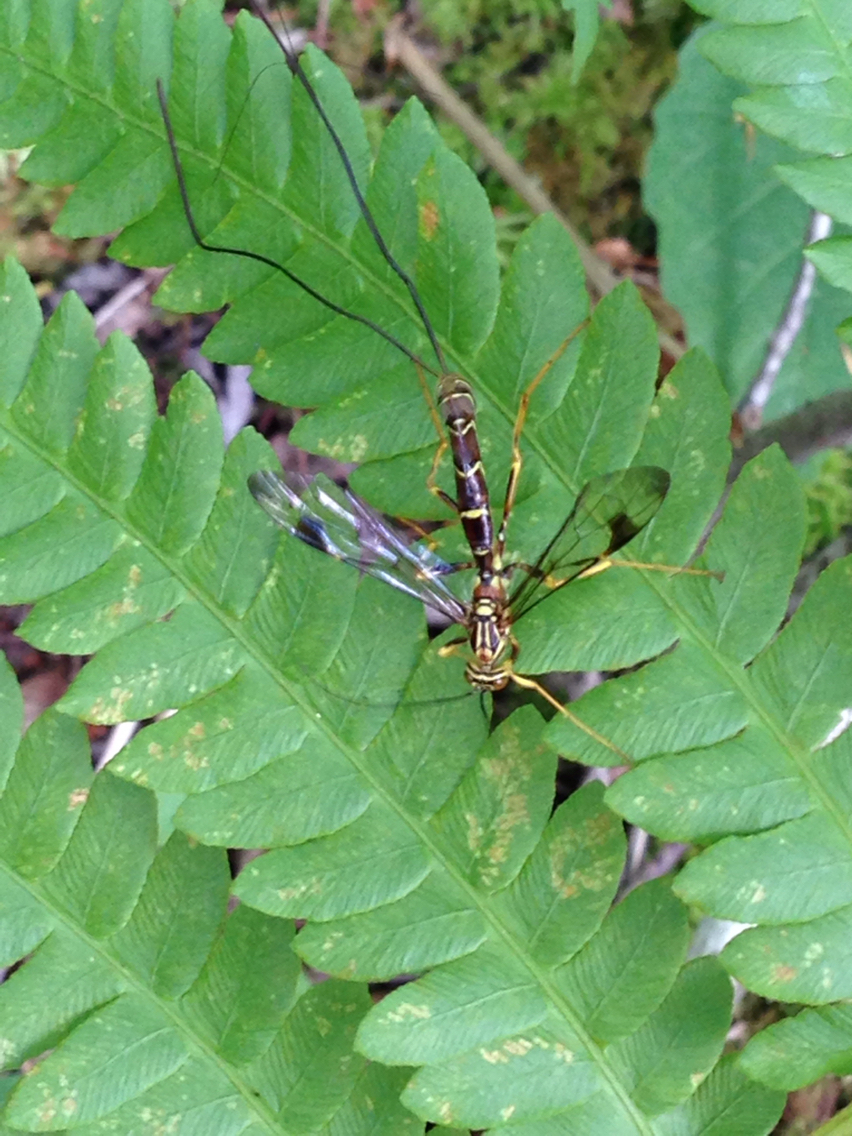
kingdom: Animalia
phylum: Arthropoda
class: Insecta
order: Hymenoptera
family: Ichneumonidae
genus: Megarhyssa
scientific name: Megarhyssa macrura
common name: Long-tailed giant ichneumonid wasp
